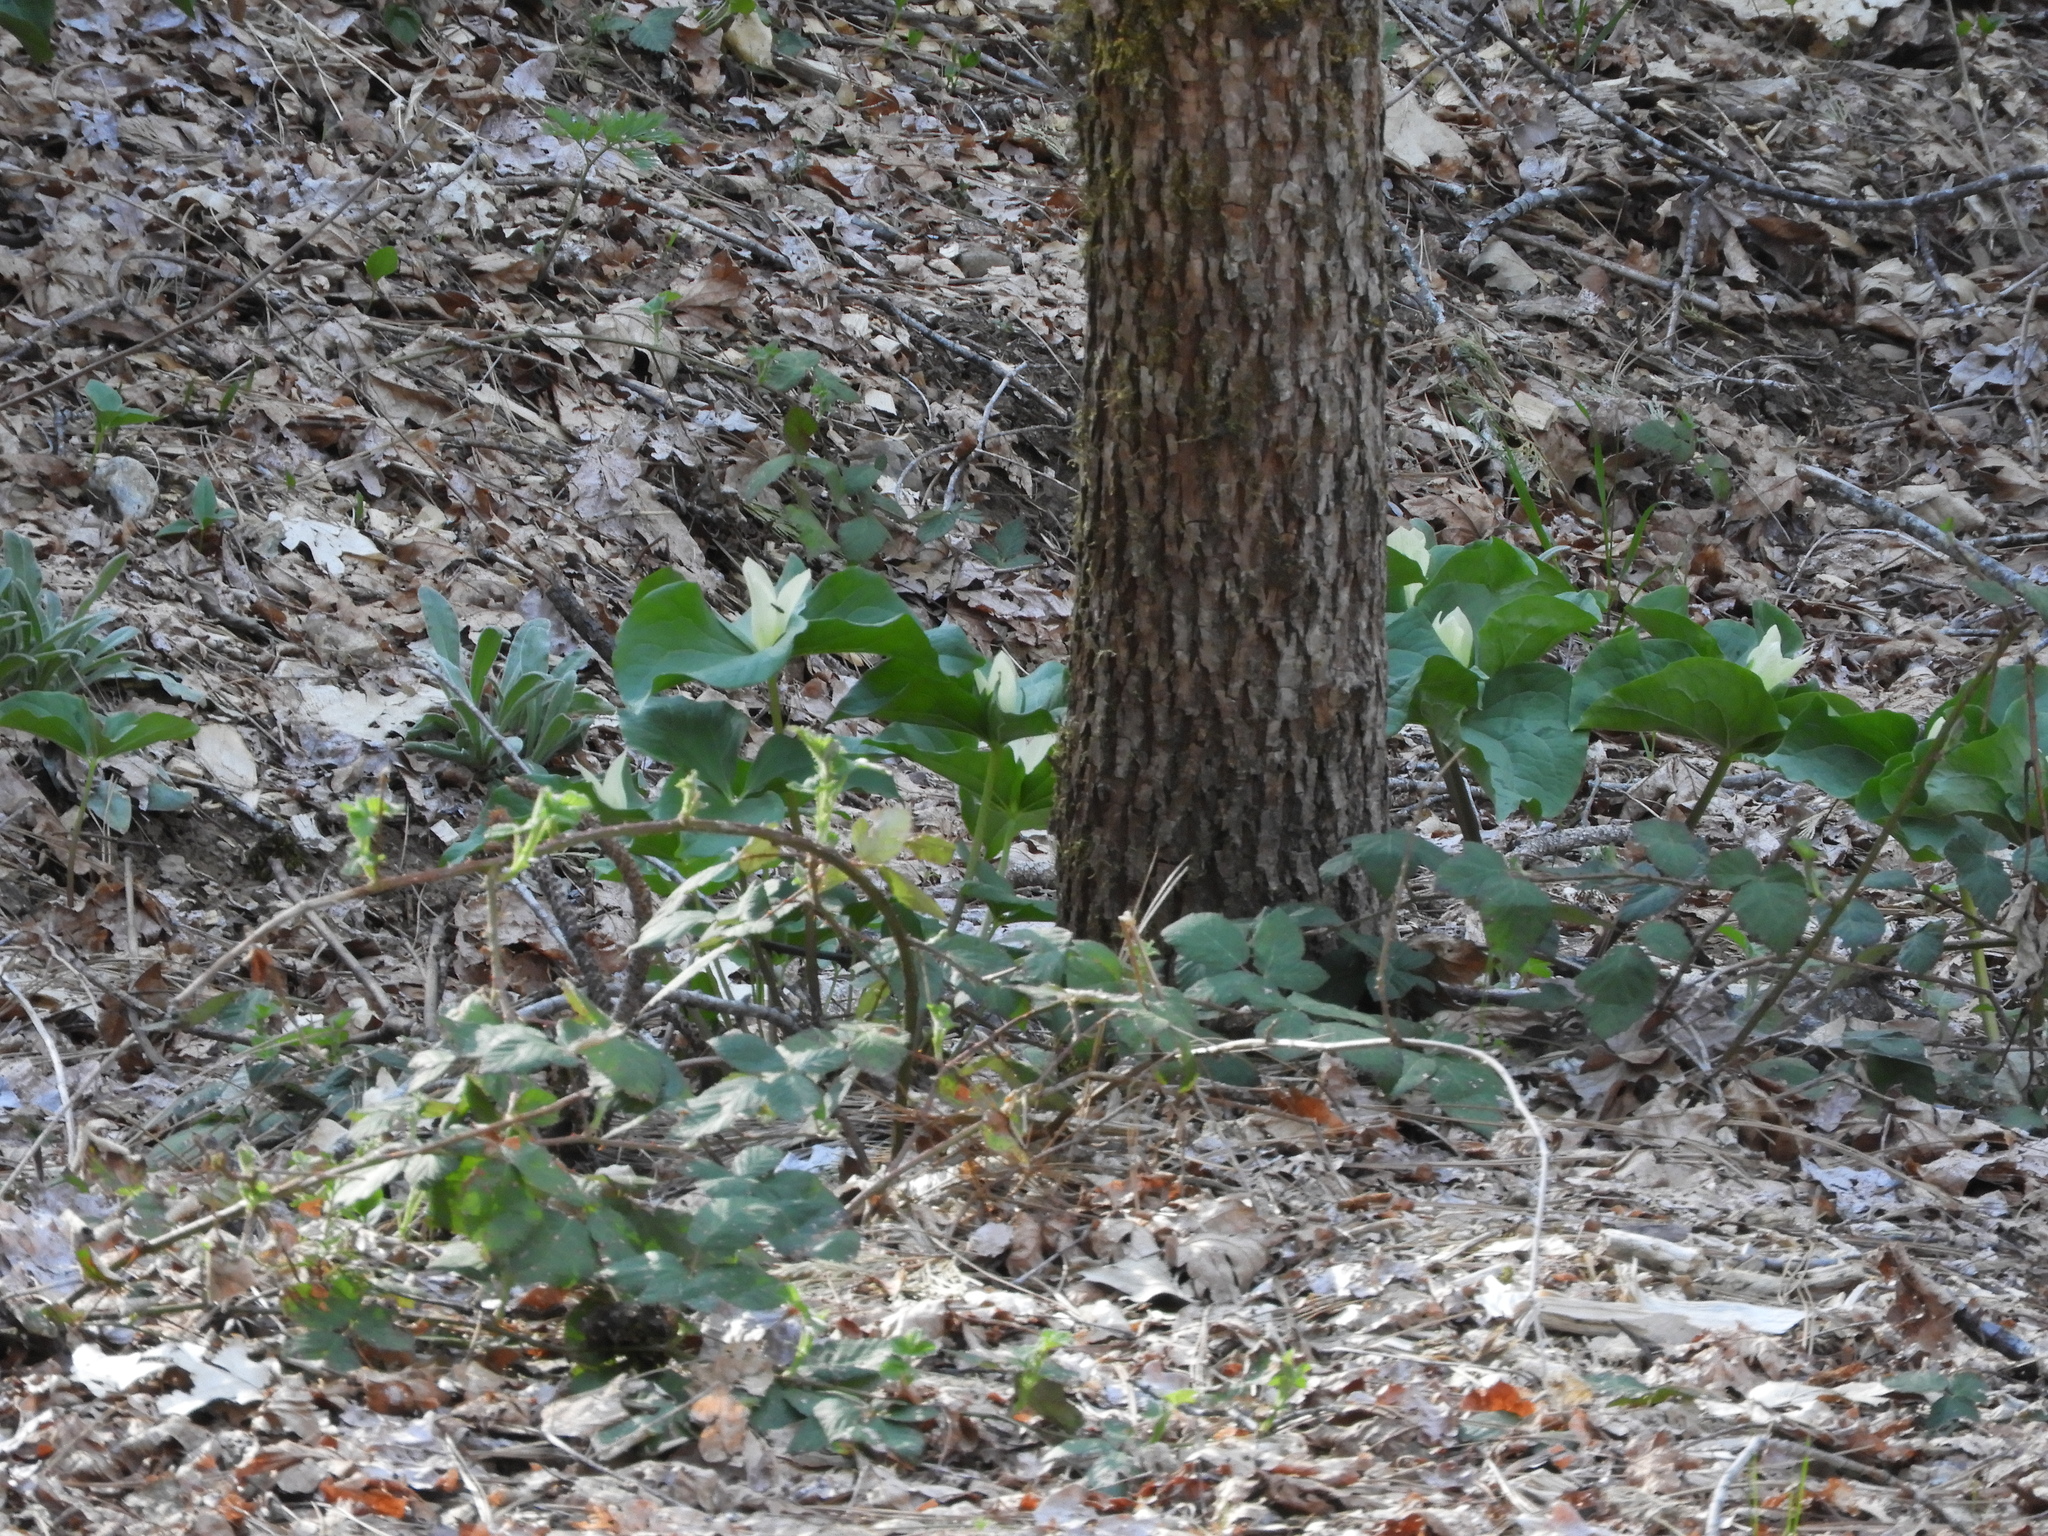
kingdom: Plantae
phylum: Tracheophyta
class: Liliopsida
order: Liliales
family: Melanthiaceae
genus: Trillium
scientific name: Trillium albidum
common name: Freeman's trillium
